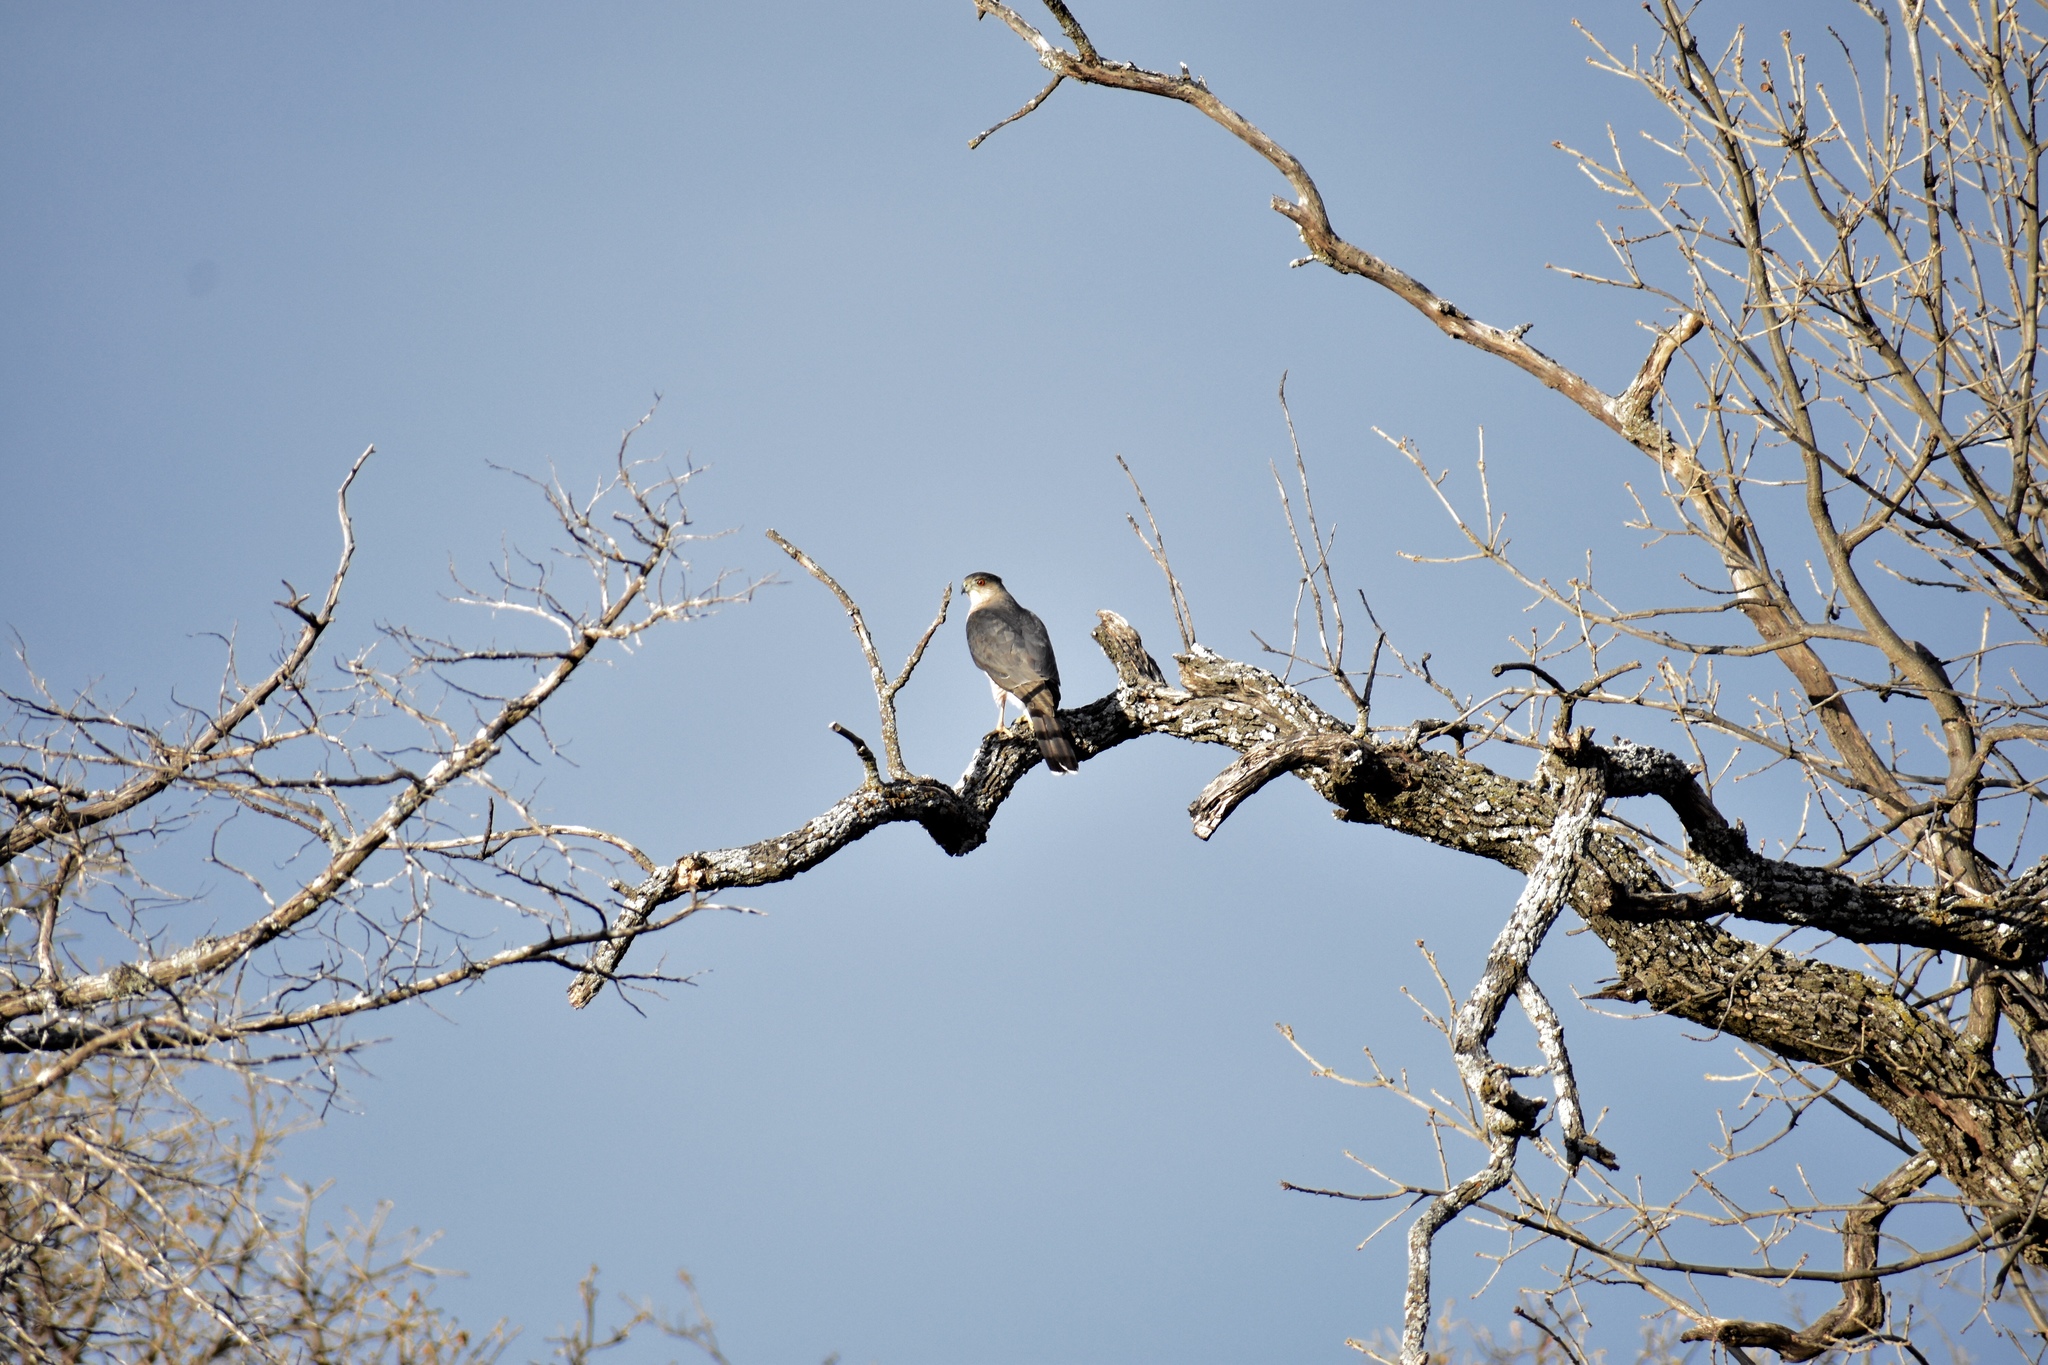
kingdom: Animalia
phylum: Chordata
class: Aves
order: Accipitriformes
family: Accipitridae
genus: Accipiter
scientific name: Accipiter cooperii
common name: Cooper's hawk
